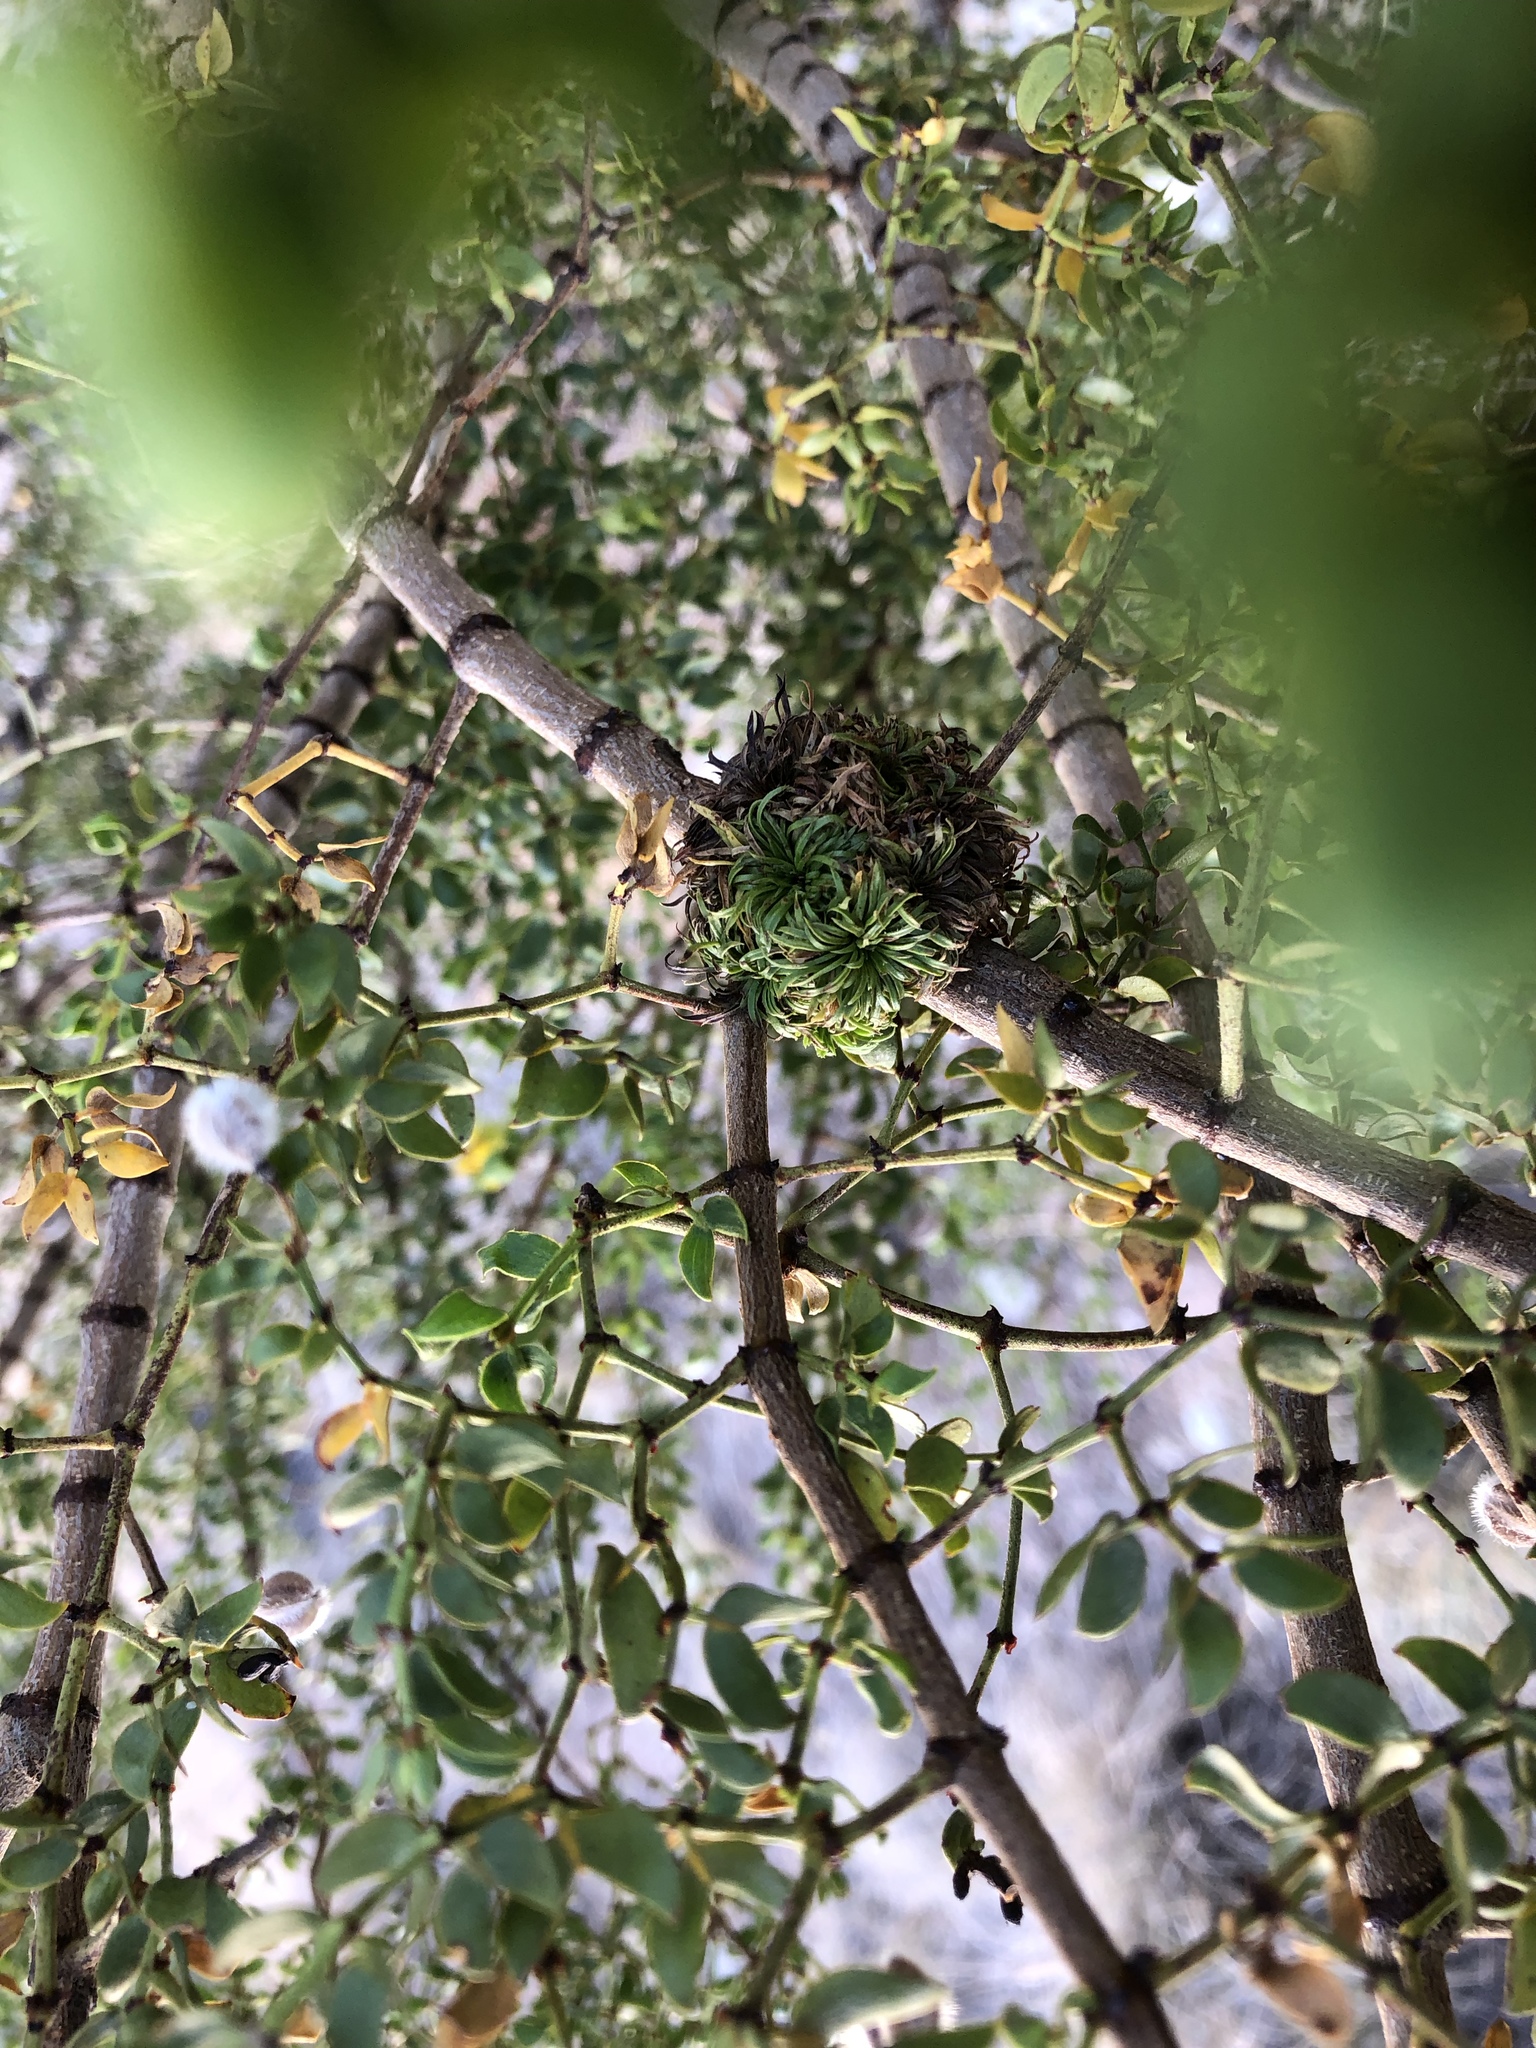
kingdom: Animalia
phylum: Arthropoda
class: Insecta
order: Diptera
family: Cecidomyiidae
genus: Asphondylia
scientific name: Asphondylia auripila
